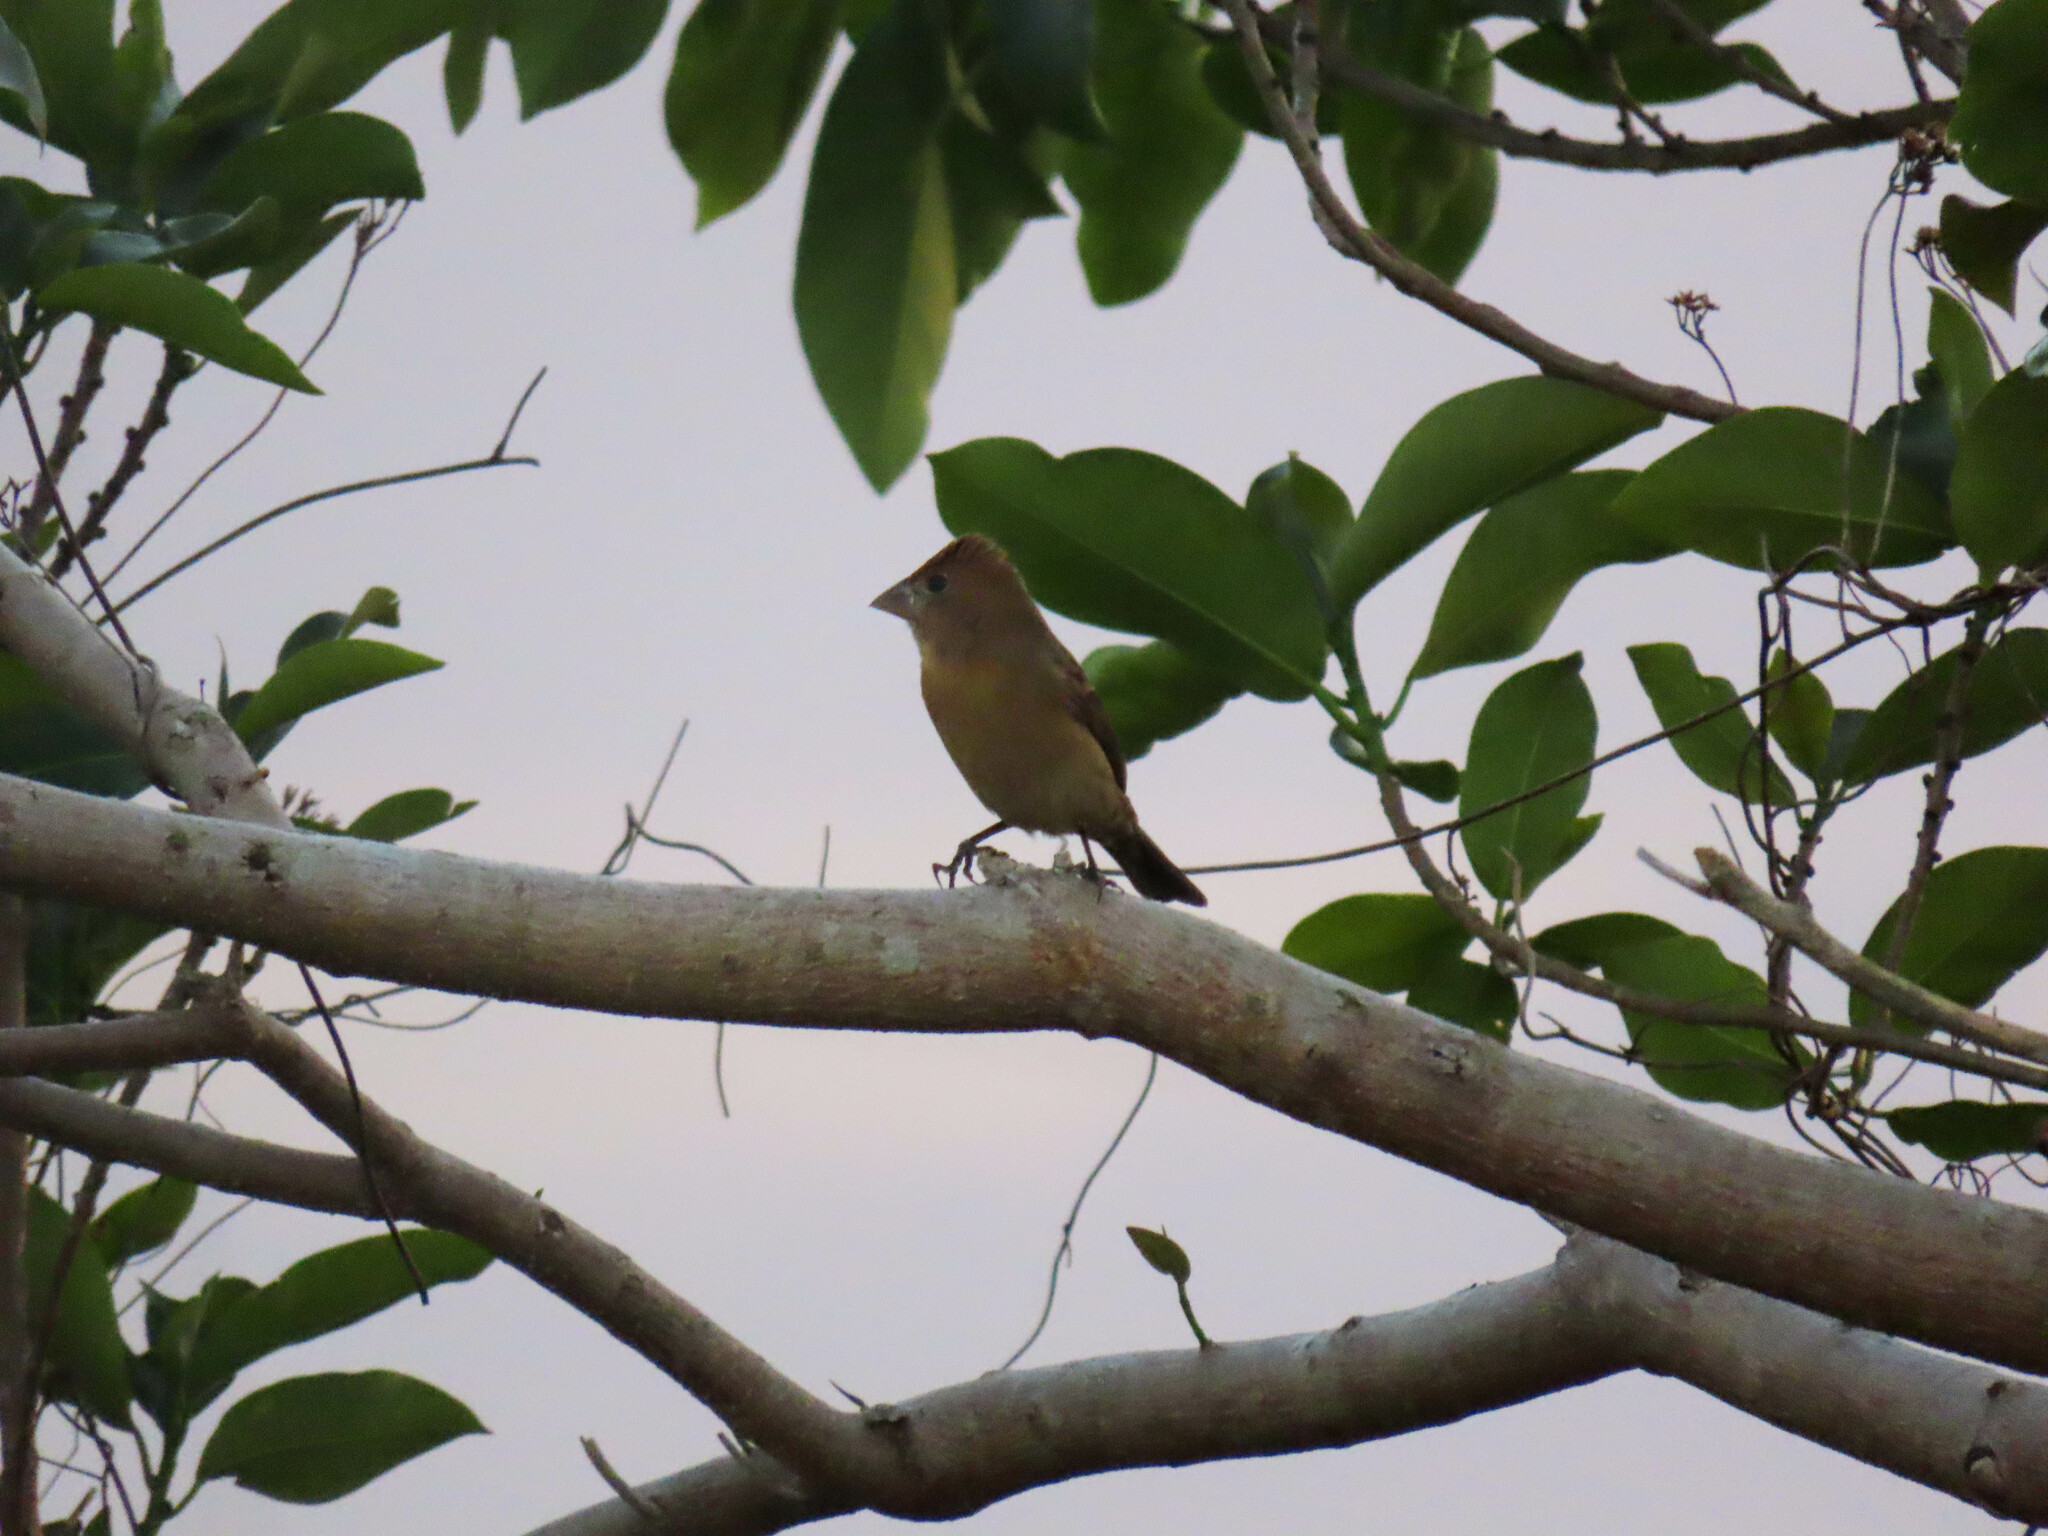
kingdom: Animalia
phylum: Chordata
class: Aves
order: Passeriformes
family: Cardinalidae
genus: Passerina
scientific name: Passerina caerulea
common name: Blue grosbeak
